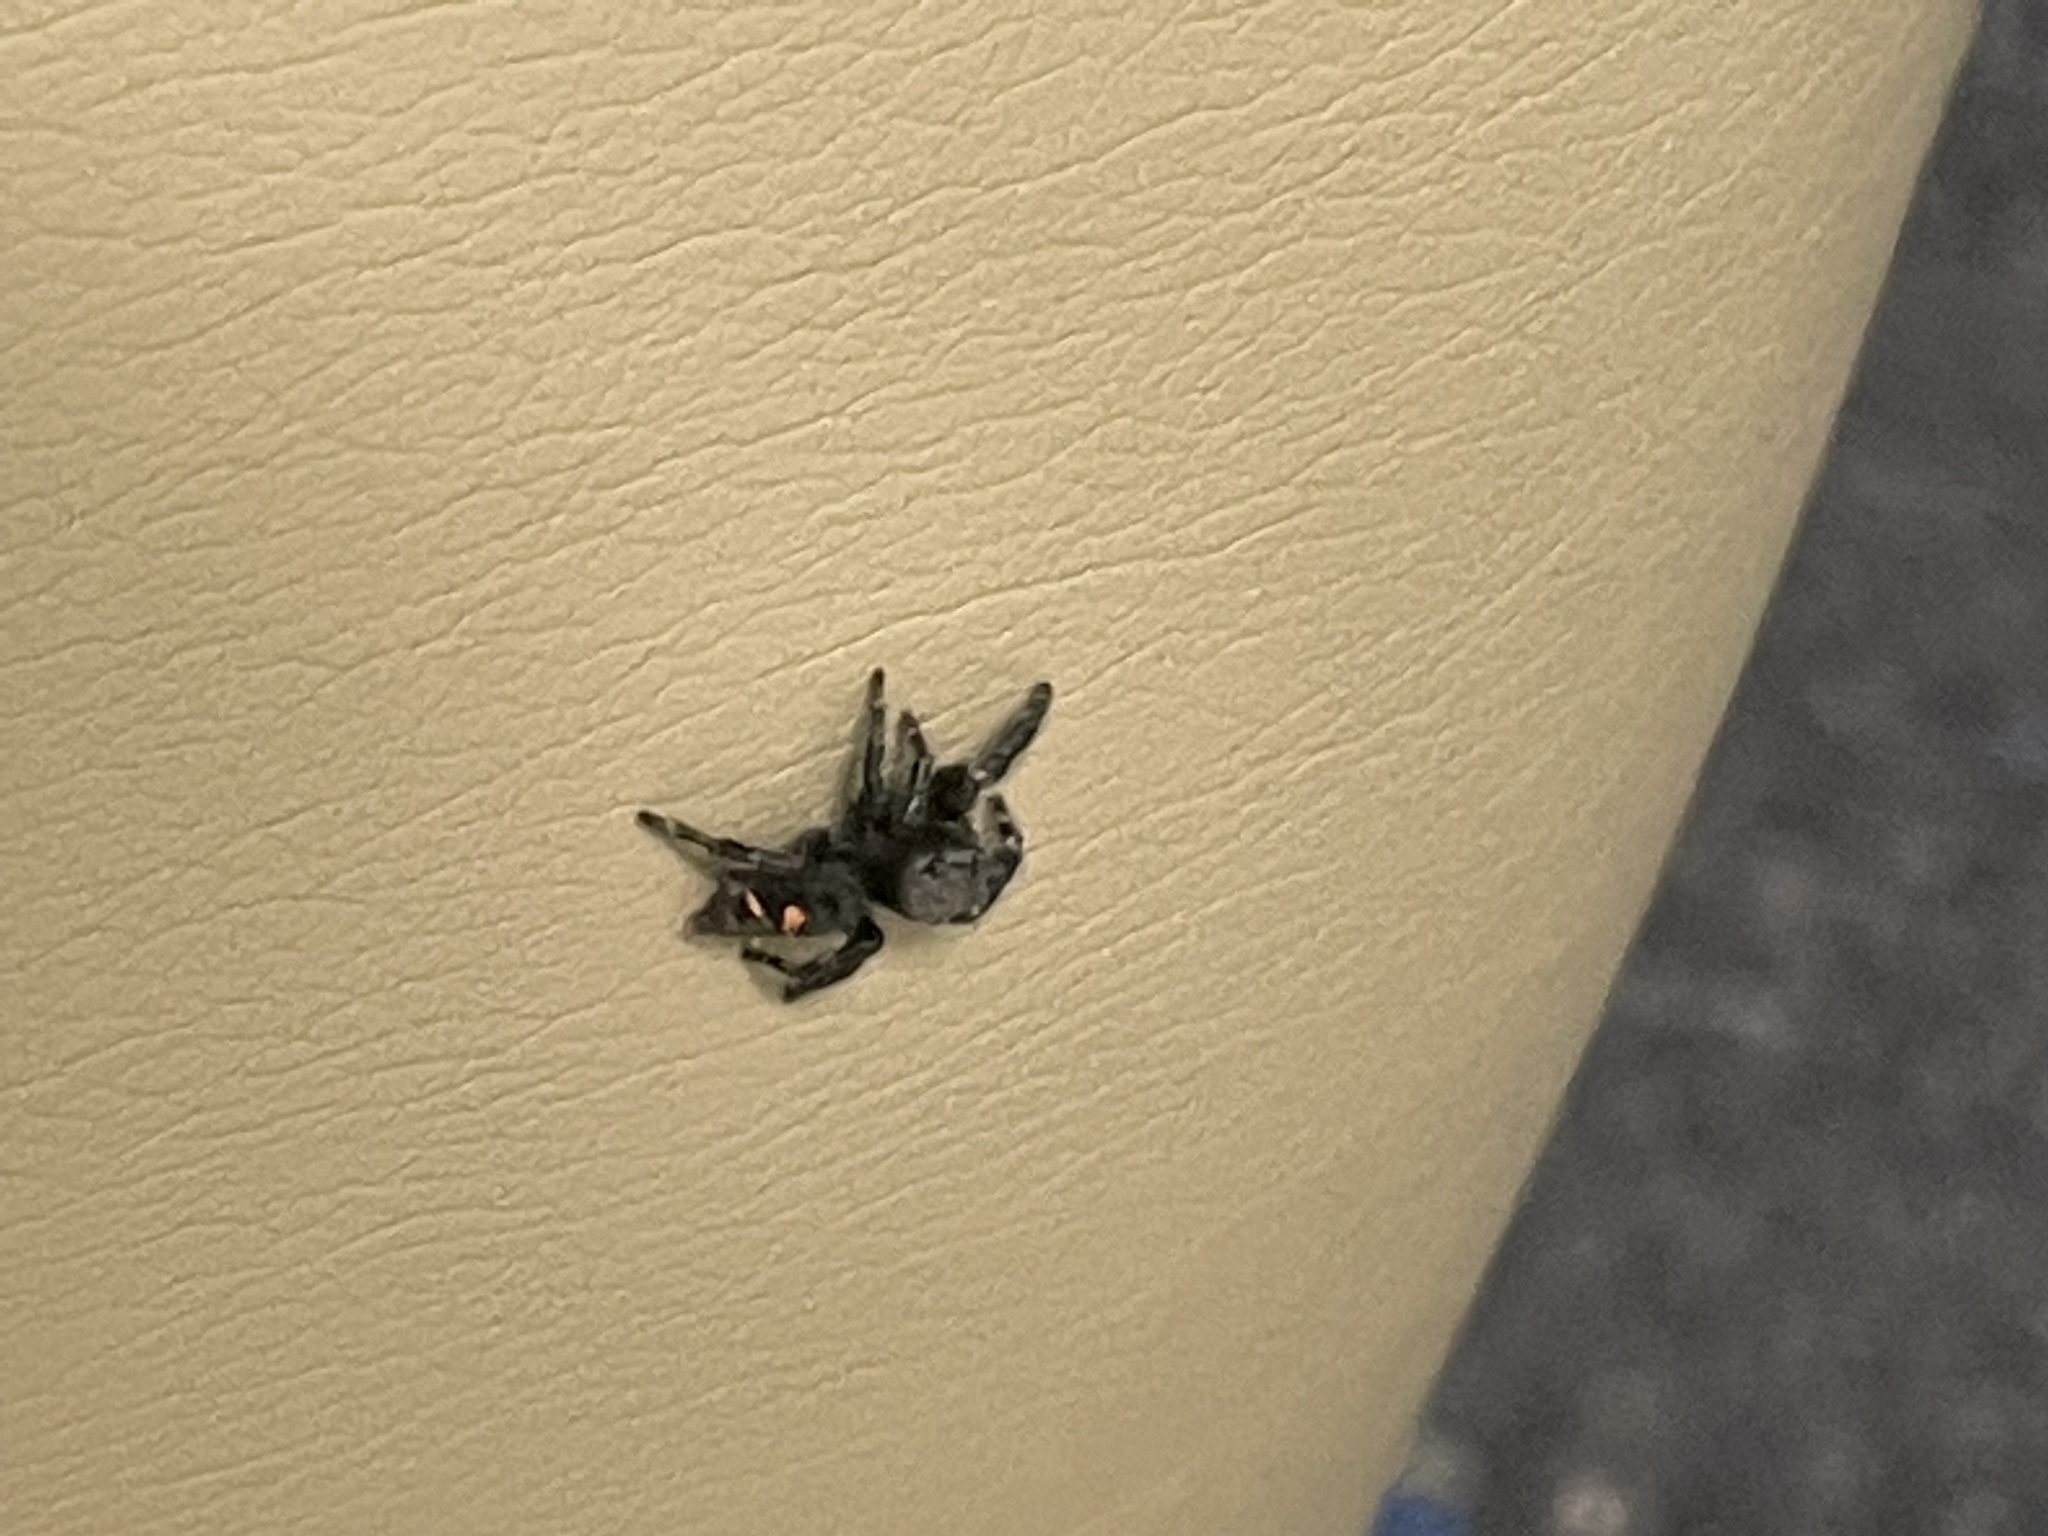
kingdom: Animalia
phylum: Arthropoda
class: Arachnida
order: Araneae
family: Salticidae
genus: Phidippus
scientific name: Phidippus audax
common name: Bold jumper
